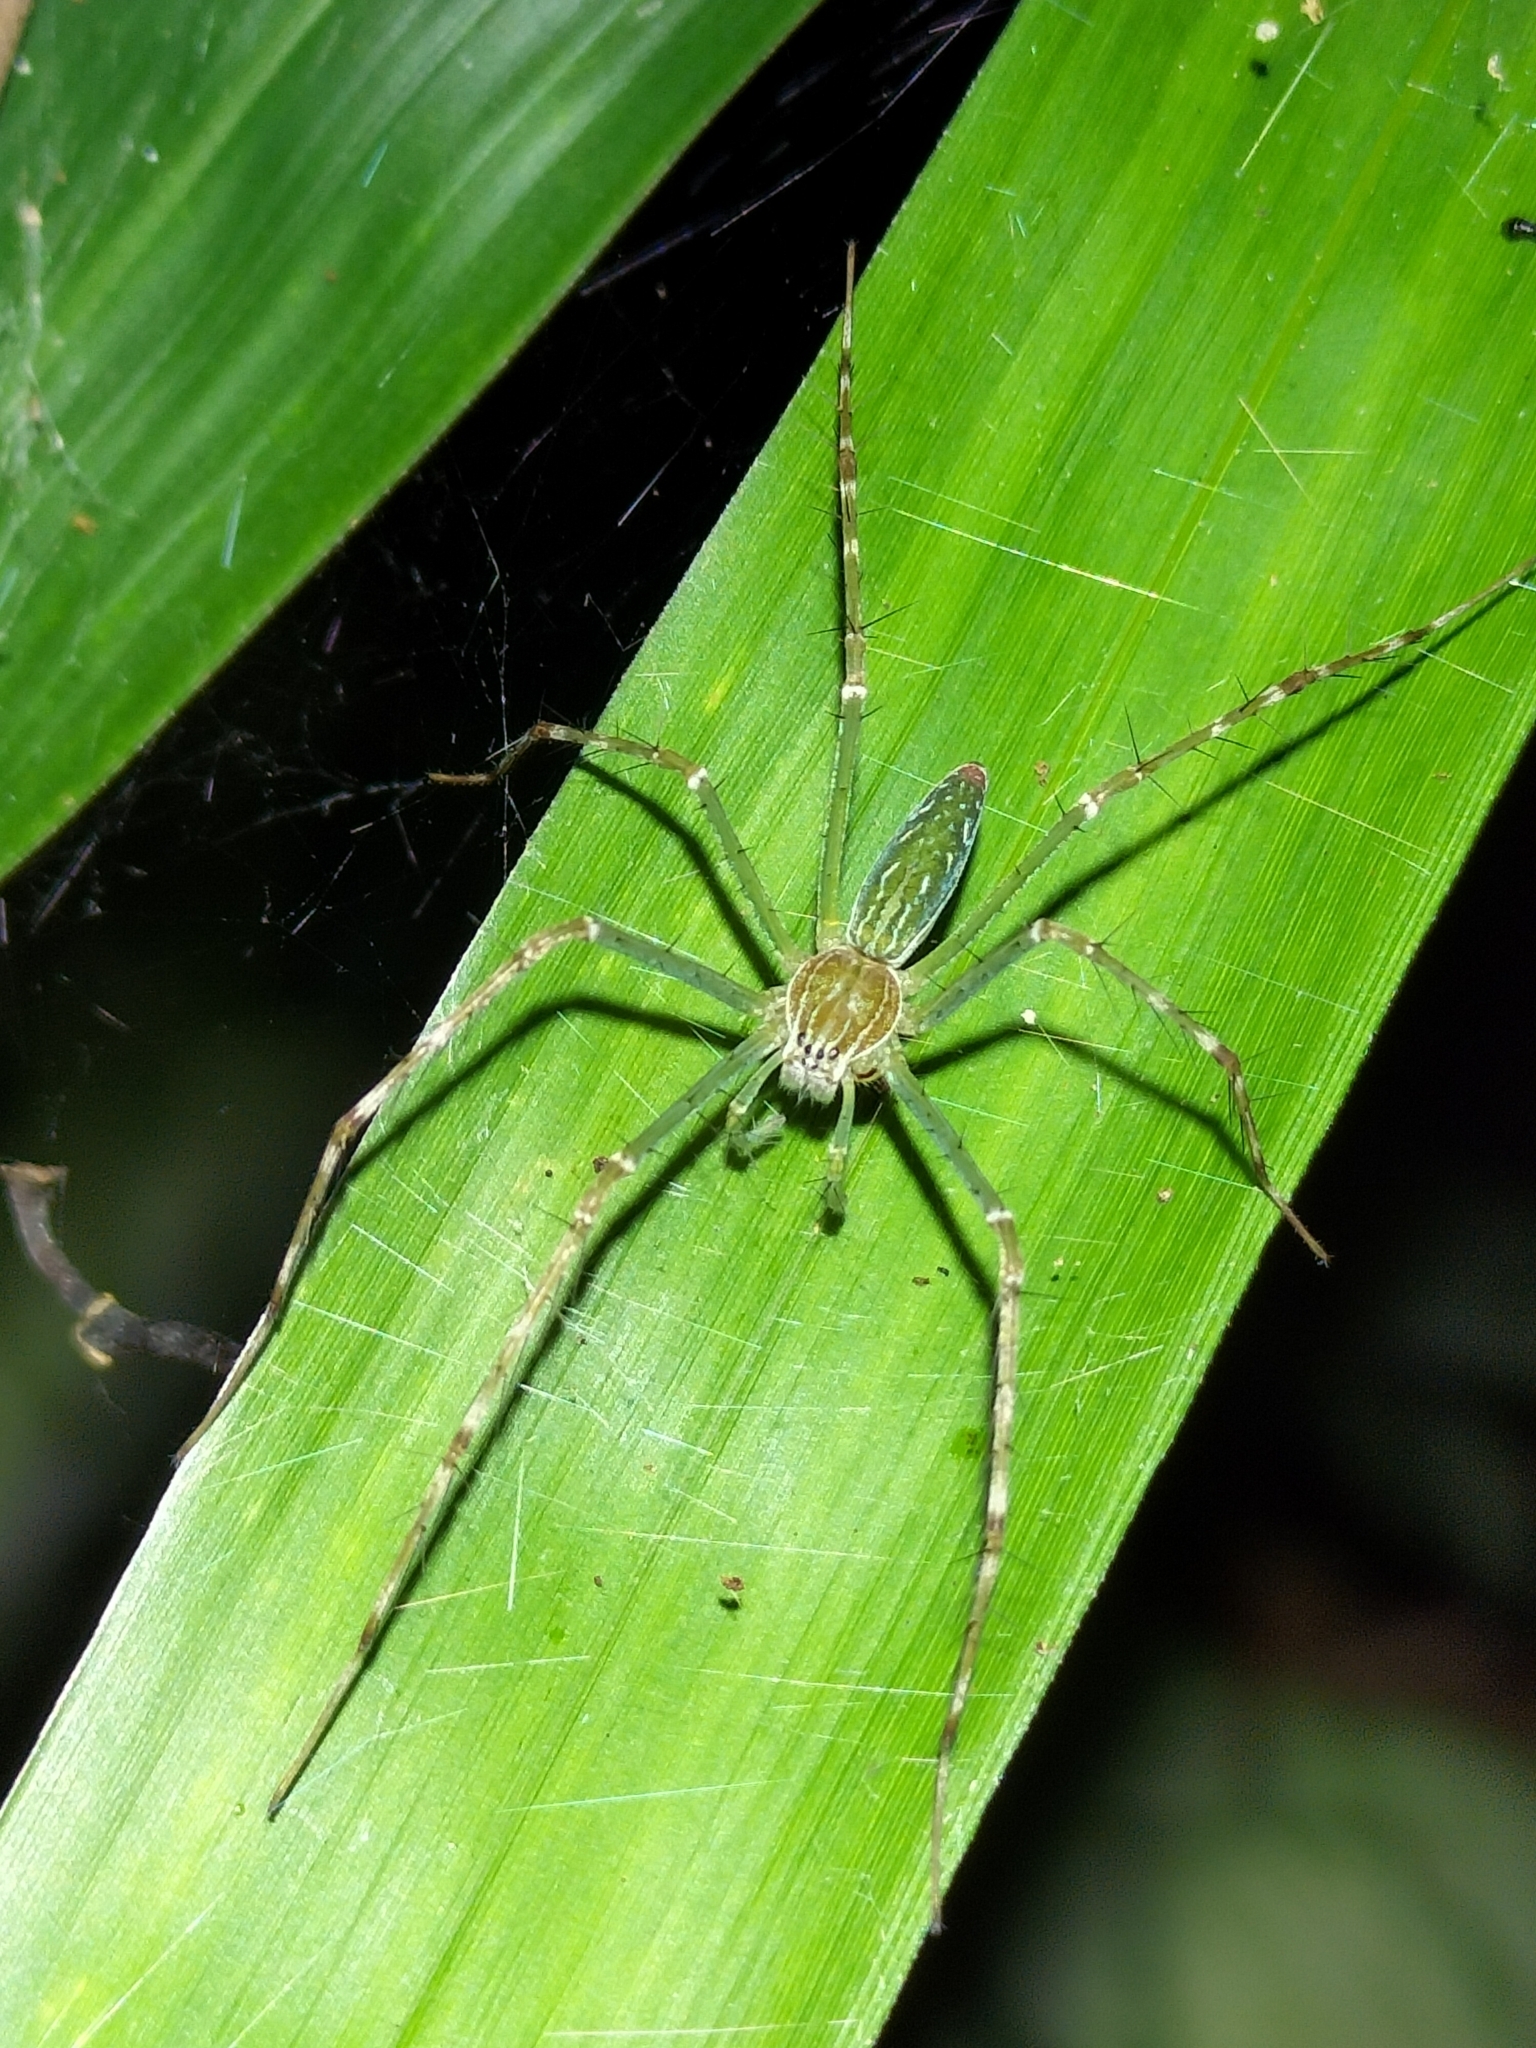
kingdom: Animalia
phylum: Arthropoda
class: Arachnida
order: Araneae
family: Pisauridae
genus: Hygropoda
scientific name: Hygropoda lineata
